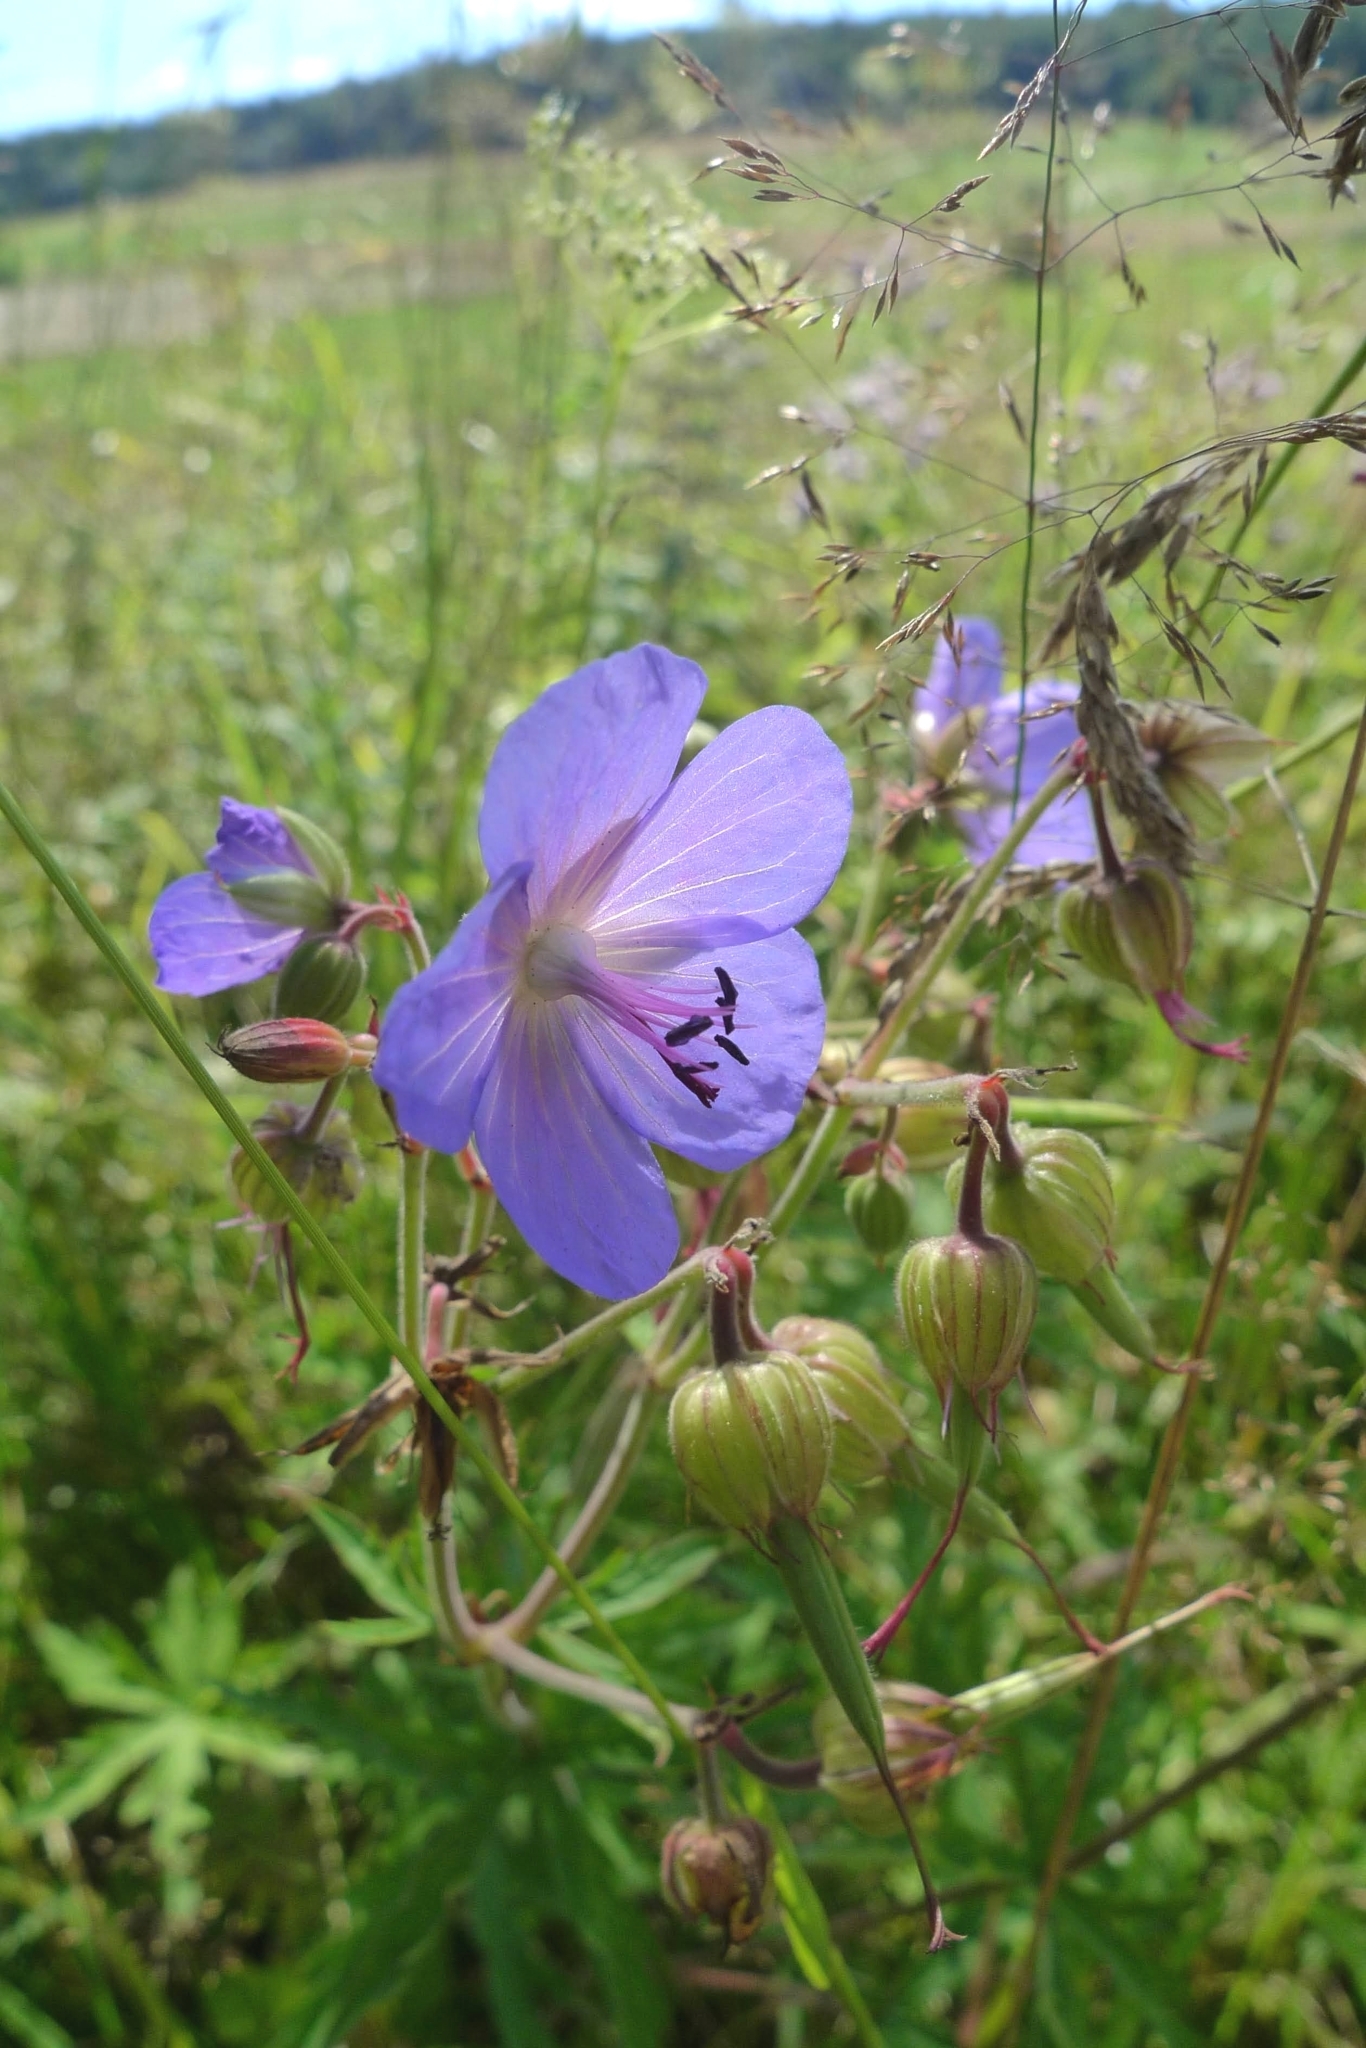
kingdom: Plantae
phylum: Tracheophyta
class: Magnoliopsida
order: Geraniales
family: Geraniaceae
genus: Geranium
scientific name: Geranium pratense
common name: Meadow crane's-bill
